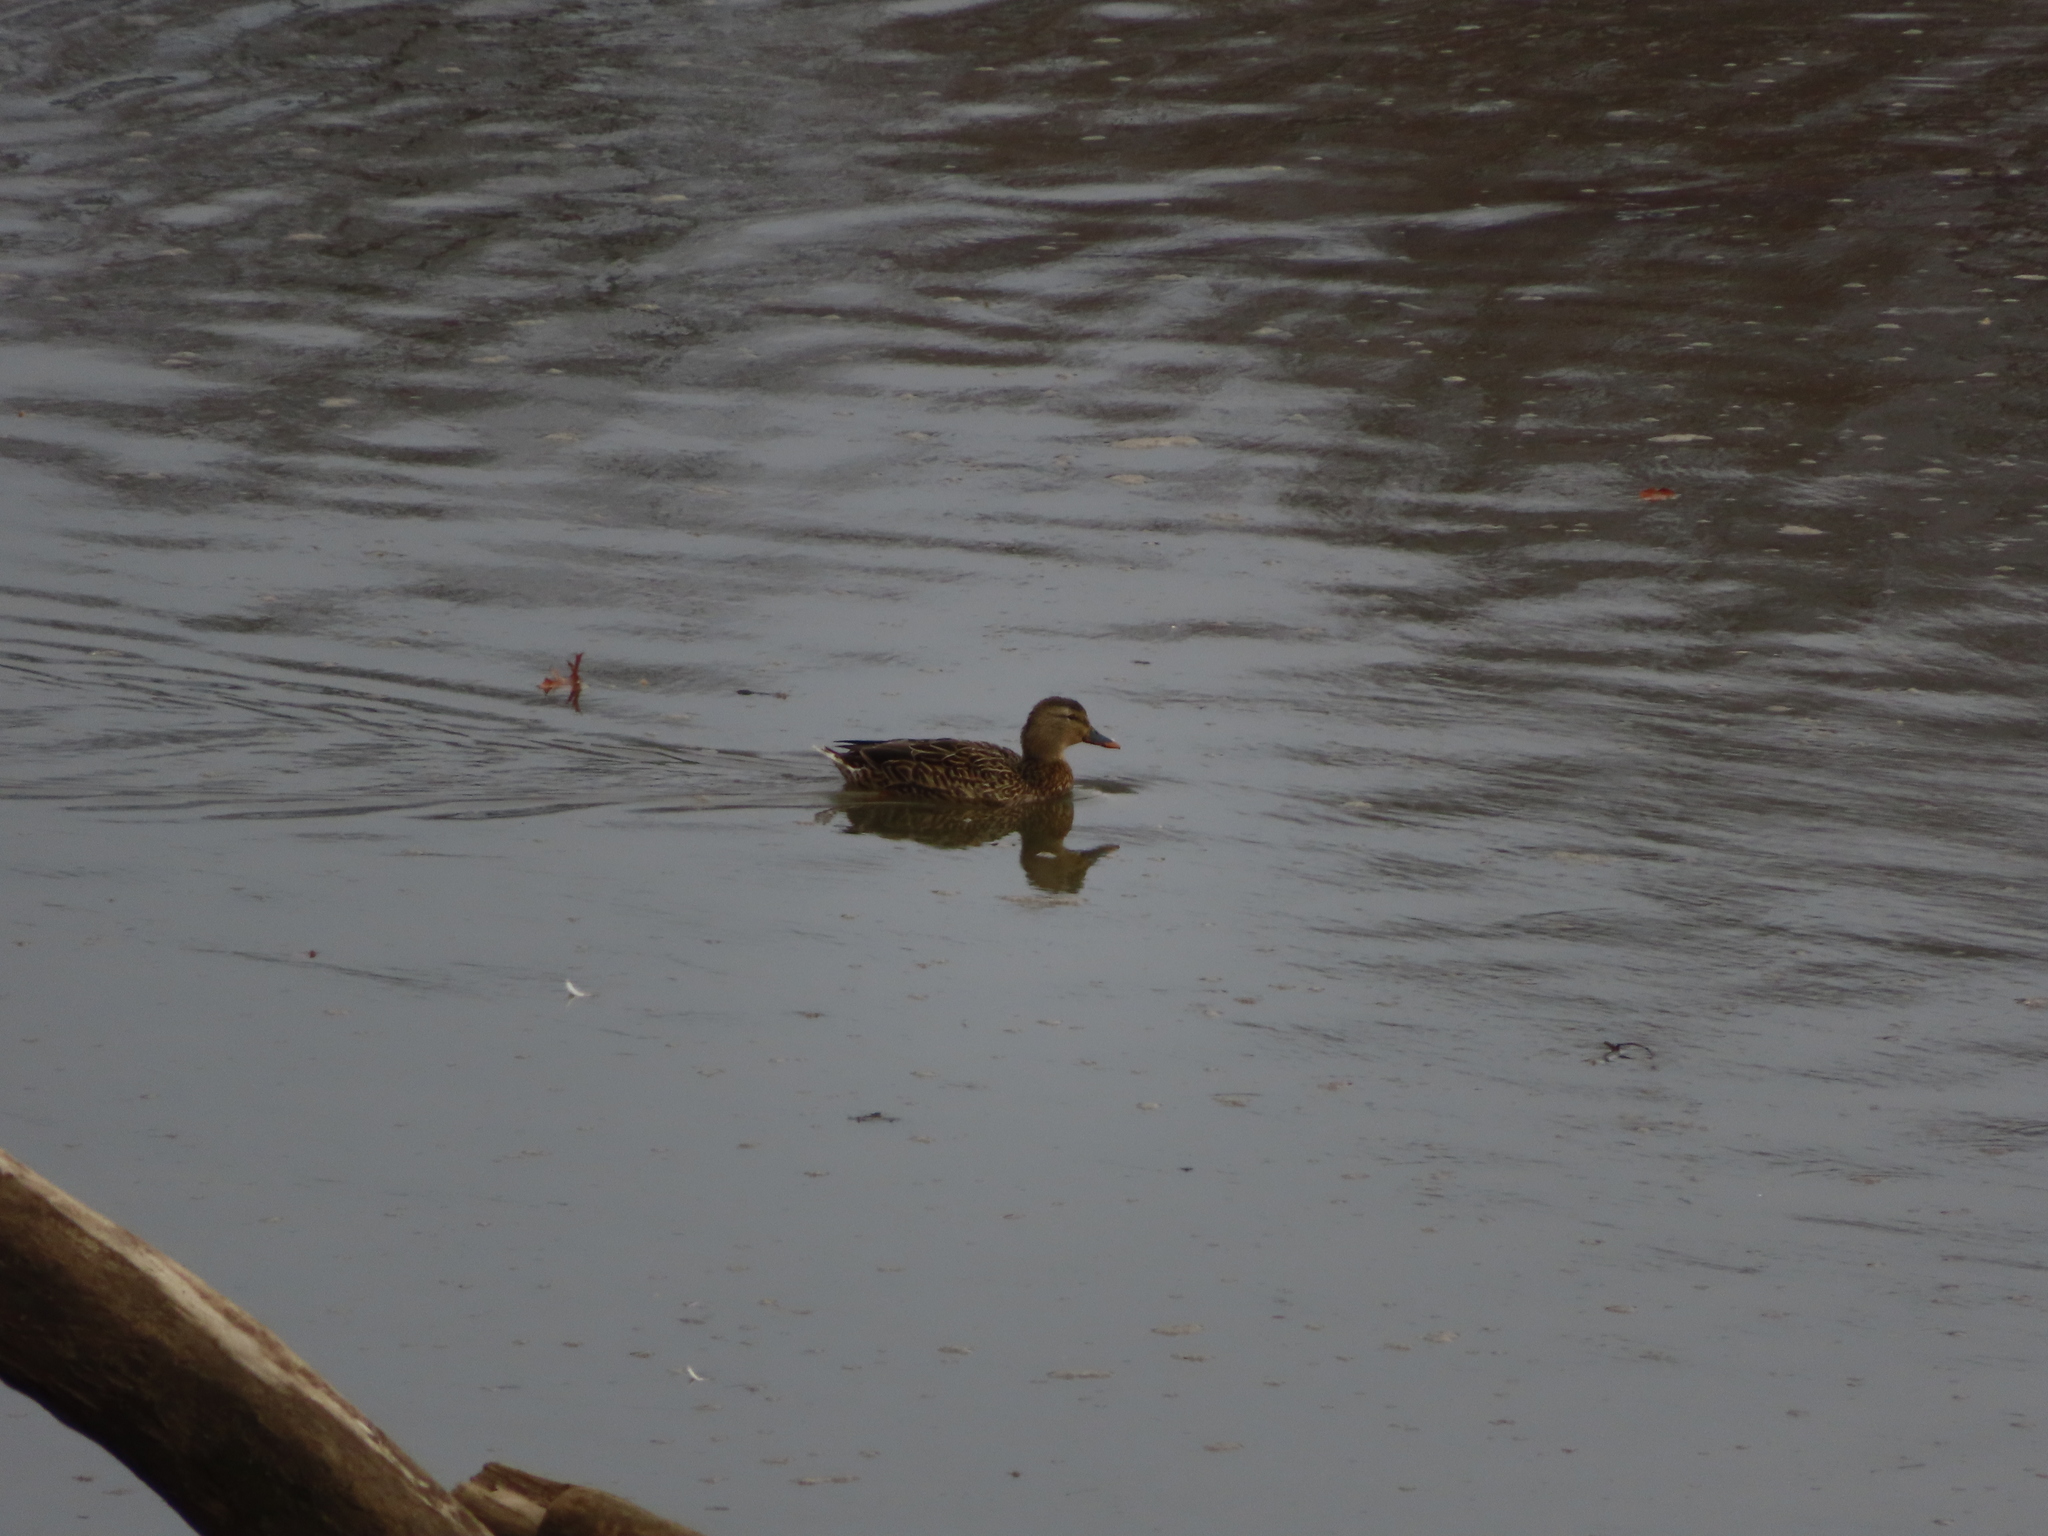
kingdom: Animalia
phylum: Chordata
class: Aves
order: Anseriformes
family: Anatidae
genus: Anas
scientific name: Anas platyrhynchos
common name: Mallard
